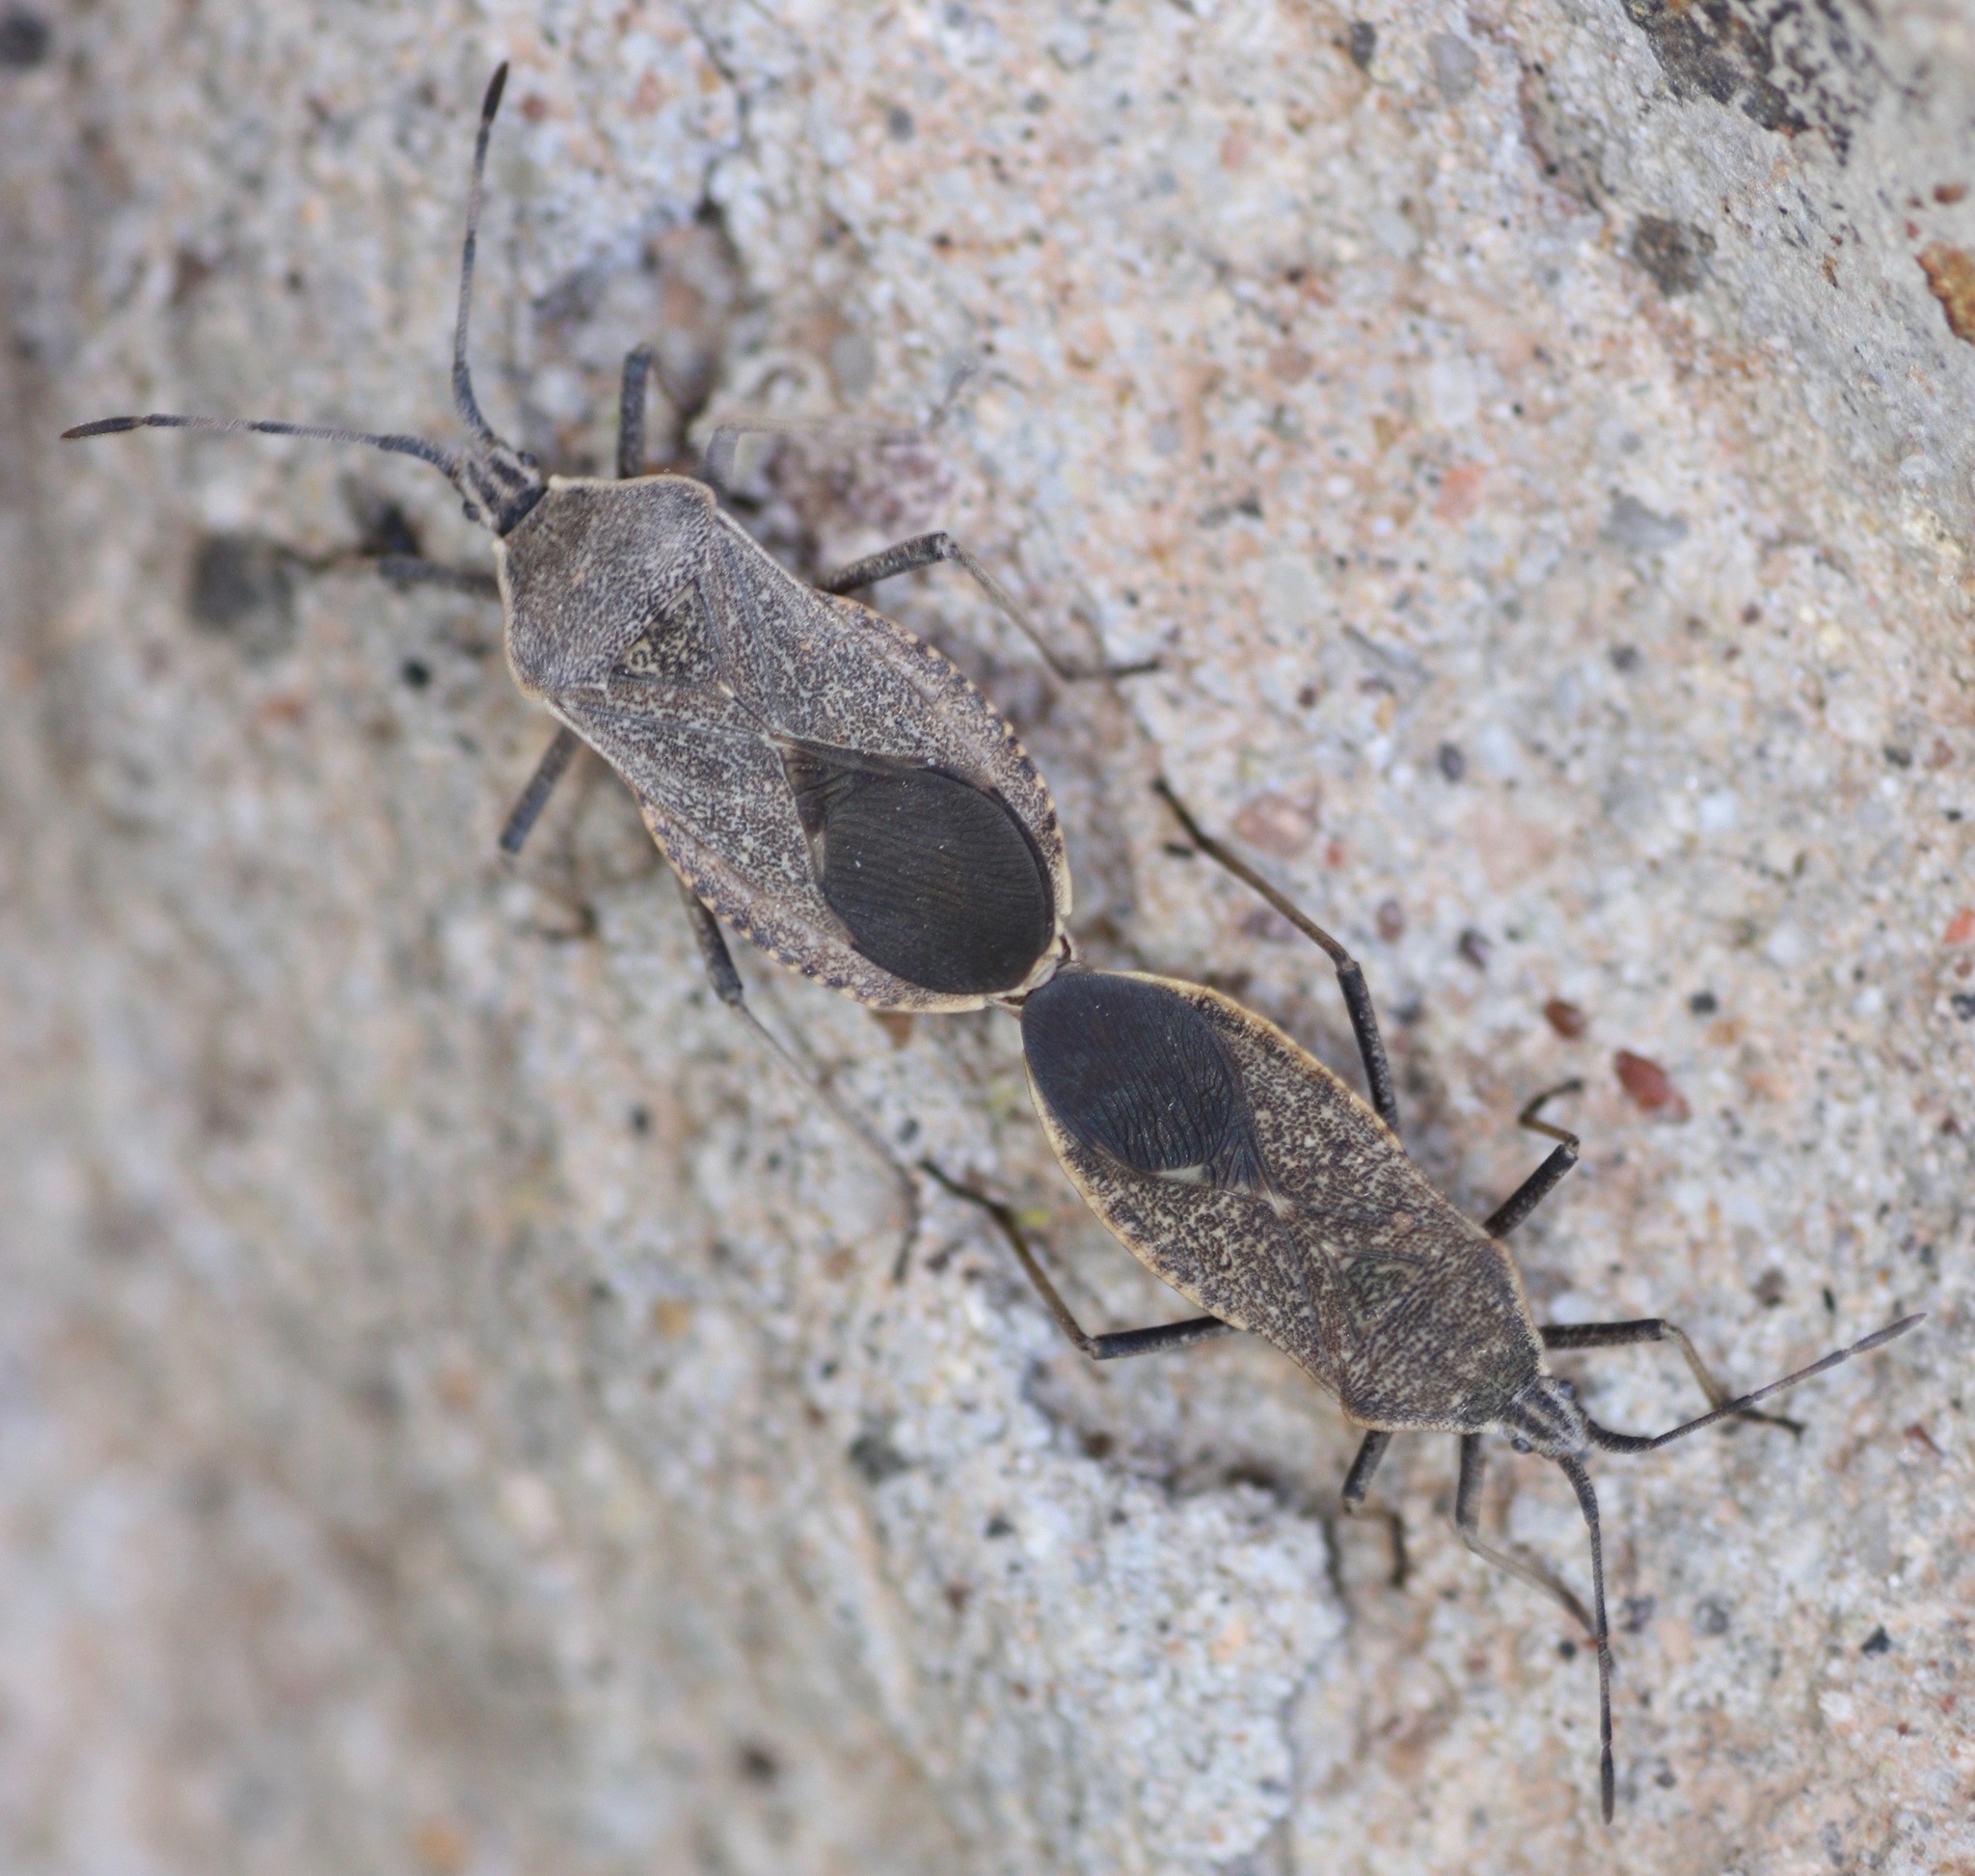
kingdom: Animalia
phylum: Arthropoda
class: Insecta
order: Hemiptera
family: Coreidae
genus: Anasa
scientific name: Anasa tristis
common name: Squash bug
